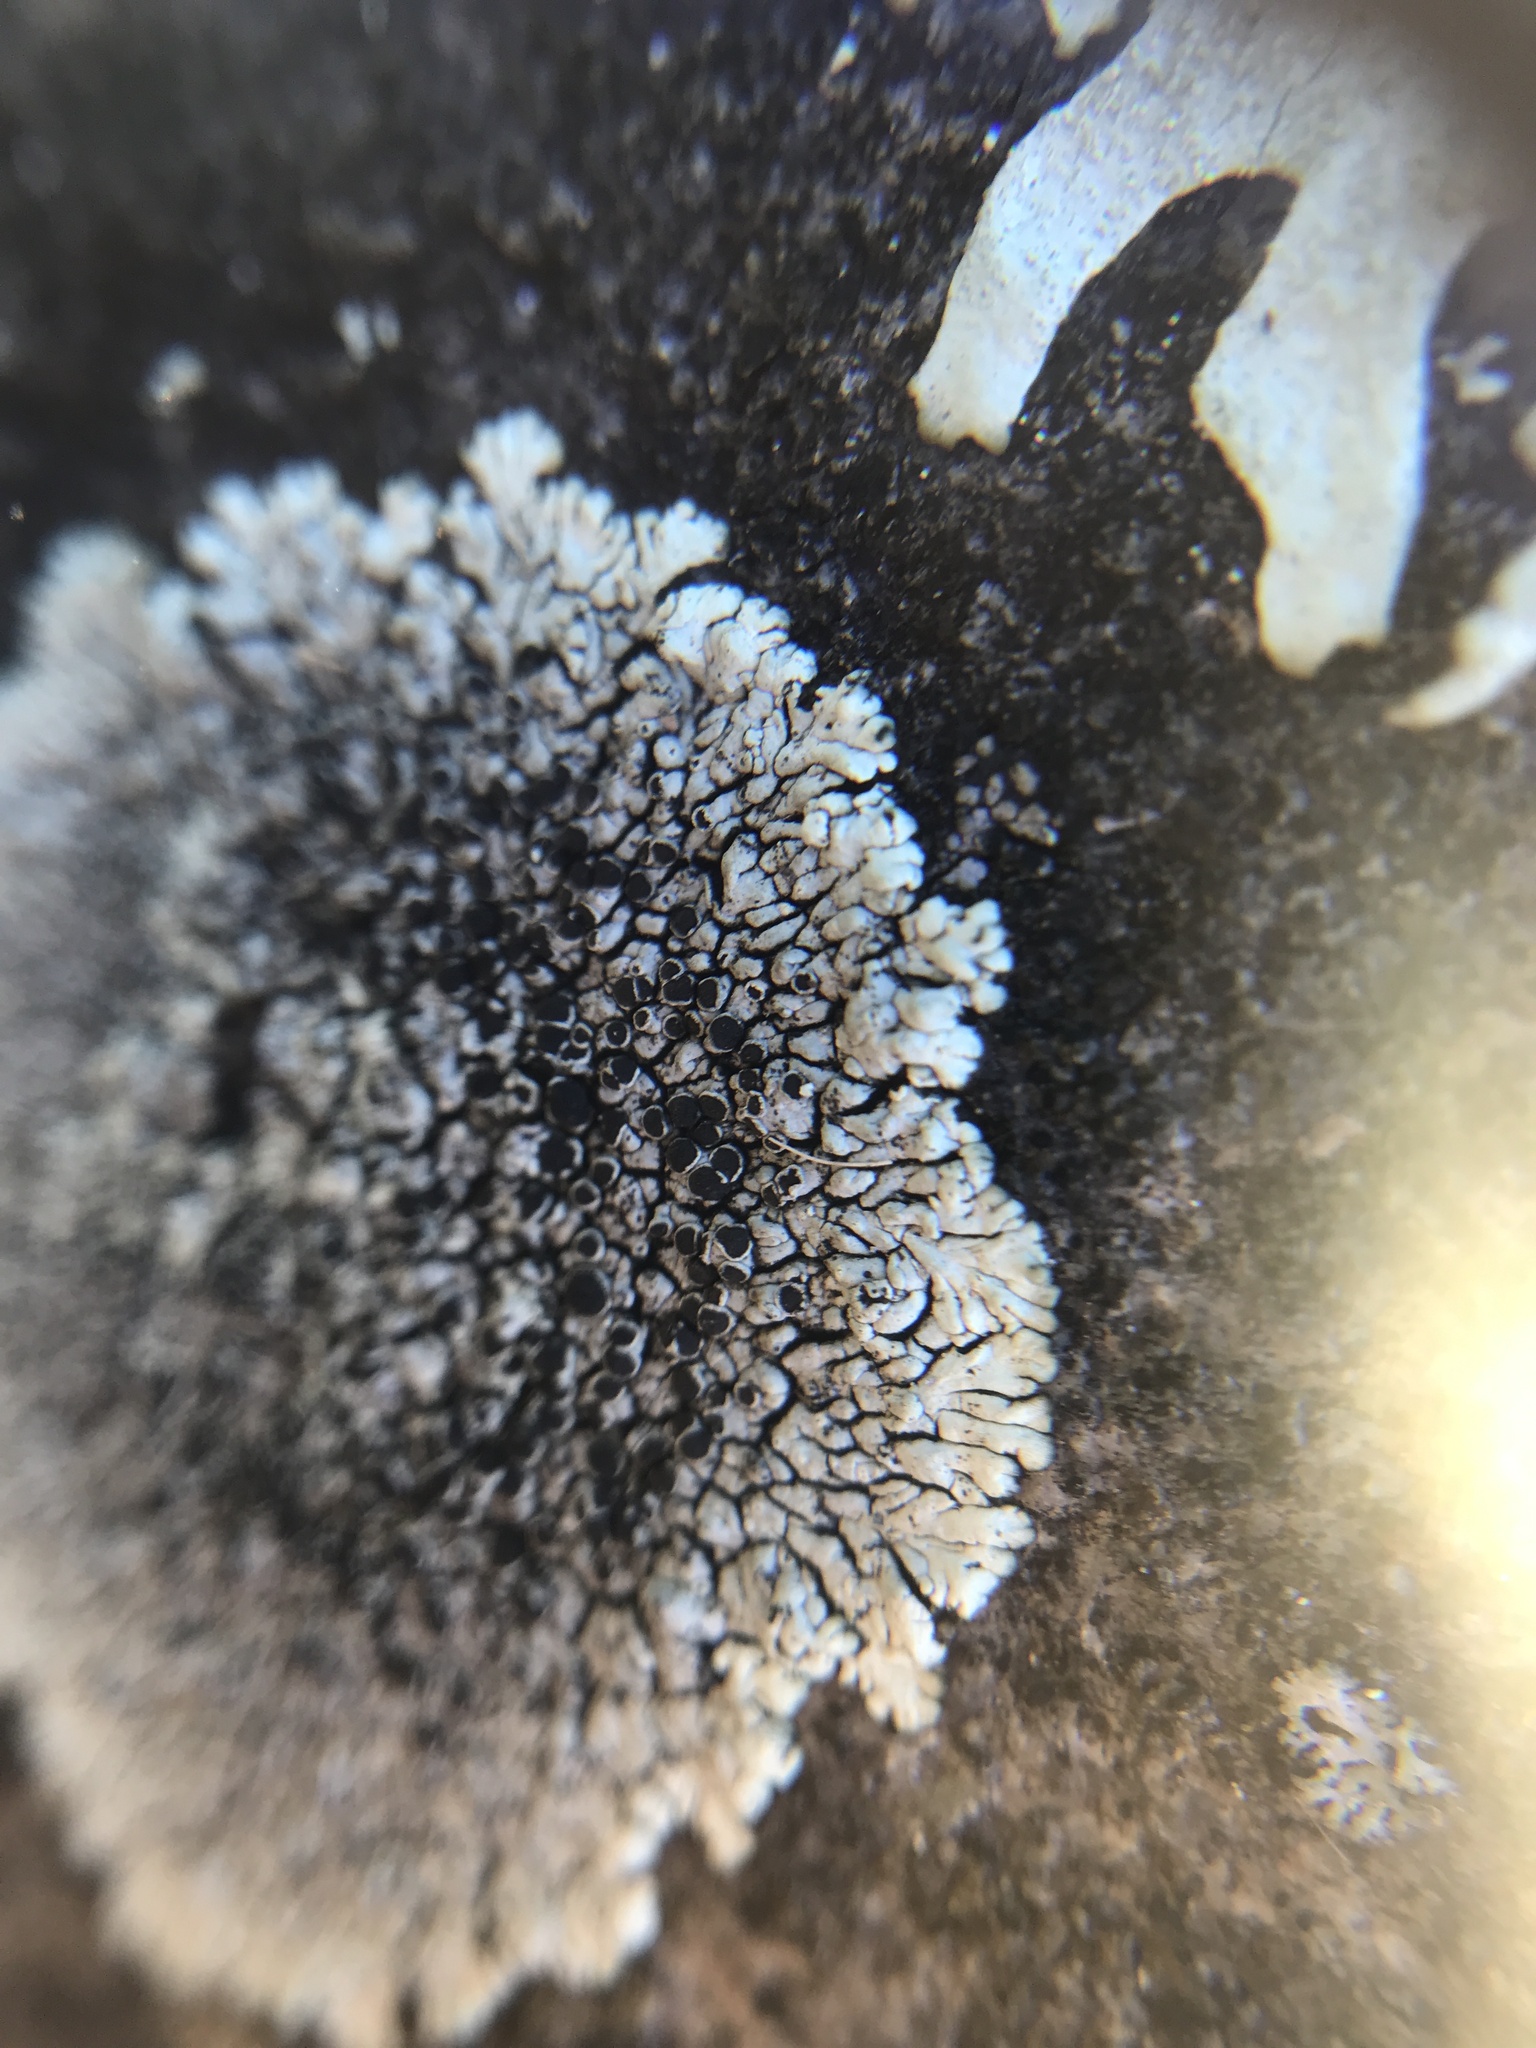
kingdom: Fungi
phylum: Ascomycota
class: Lecanoromycetes
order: Caliciales
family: Caliciaceae
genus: Dimelaena
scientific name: Dimelaena oreina
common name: Golden moonglow lichen
